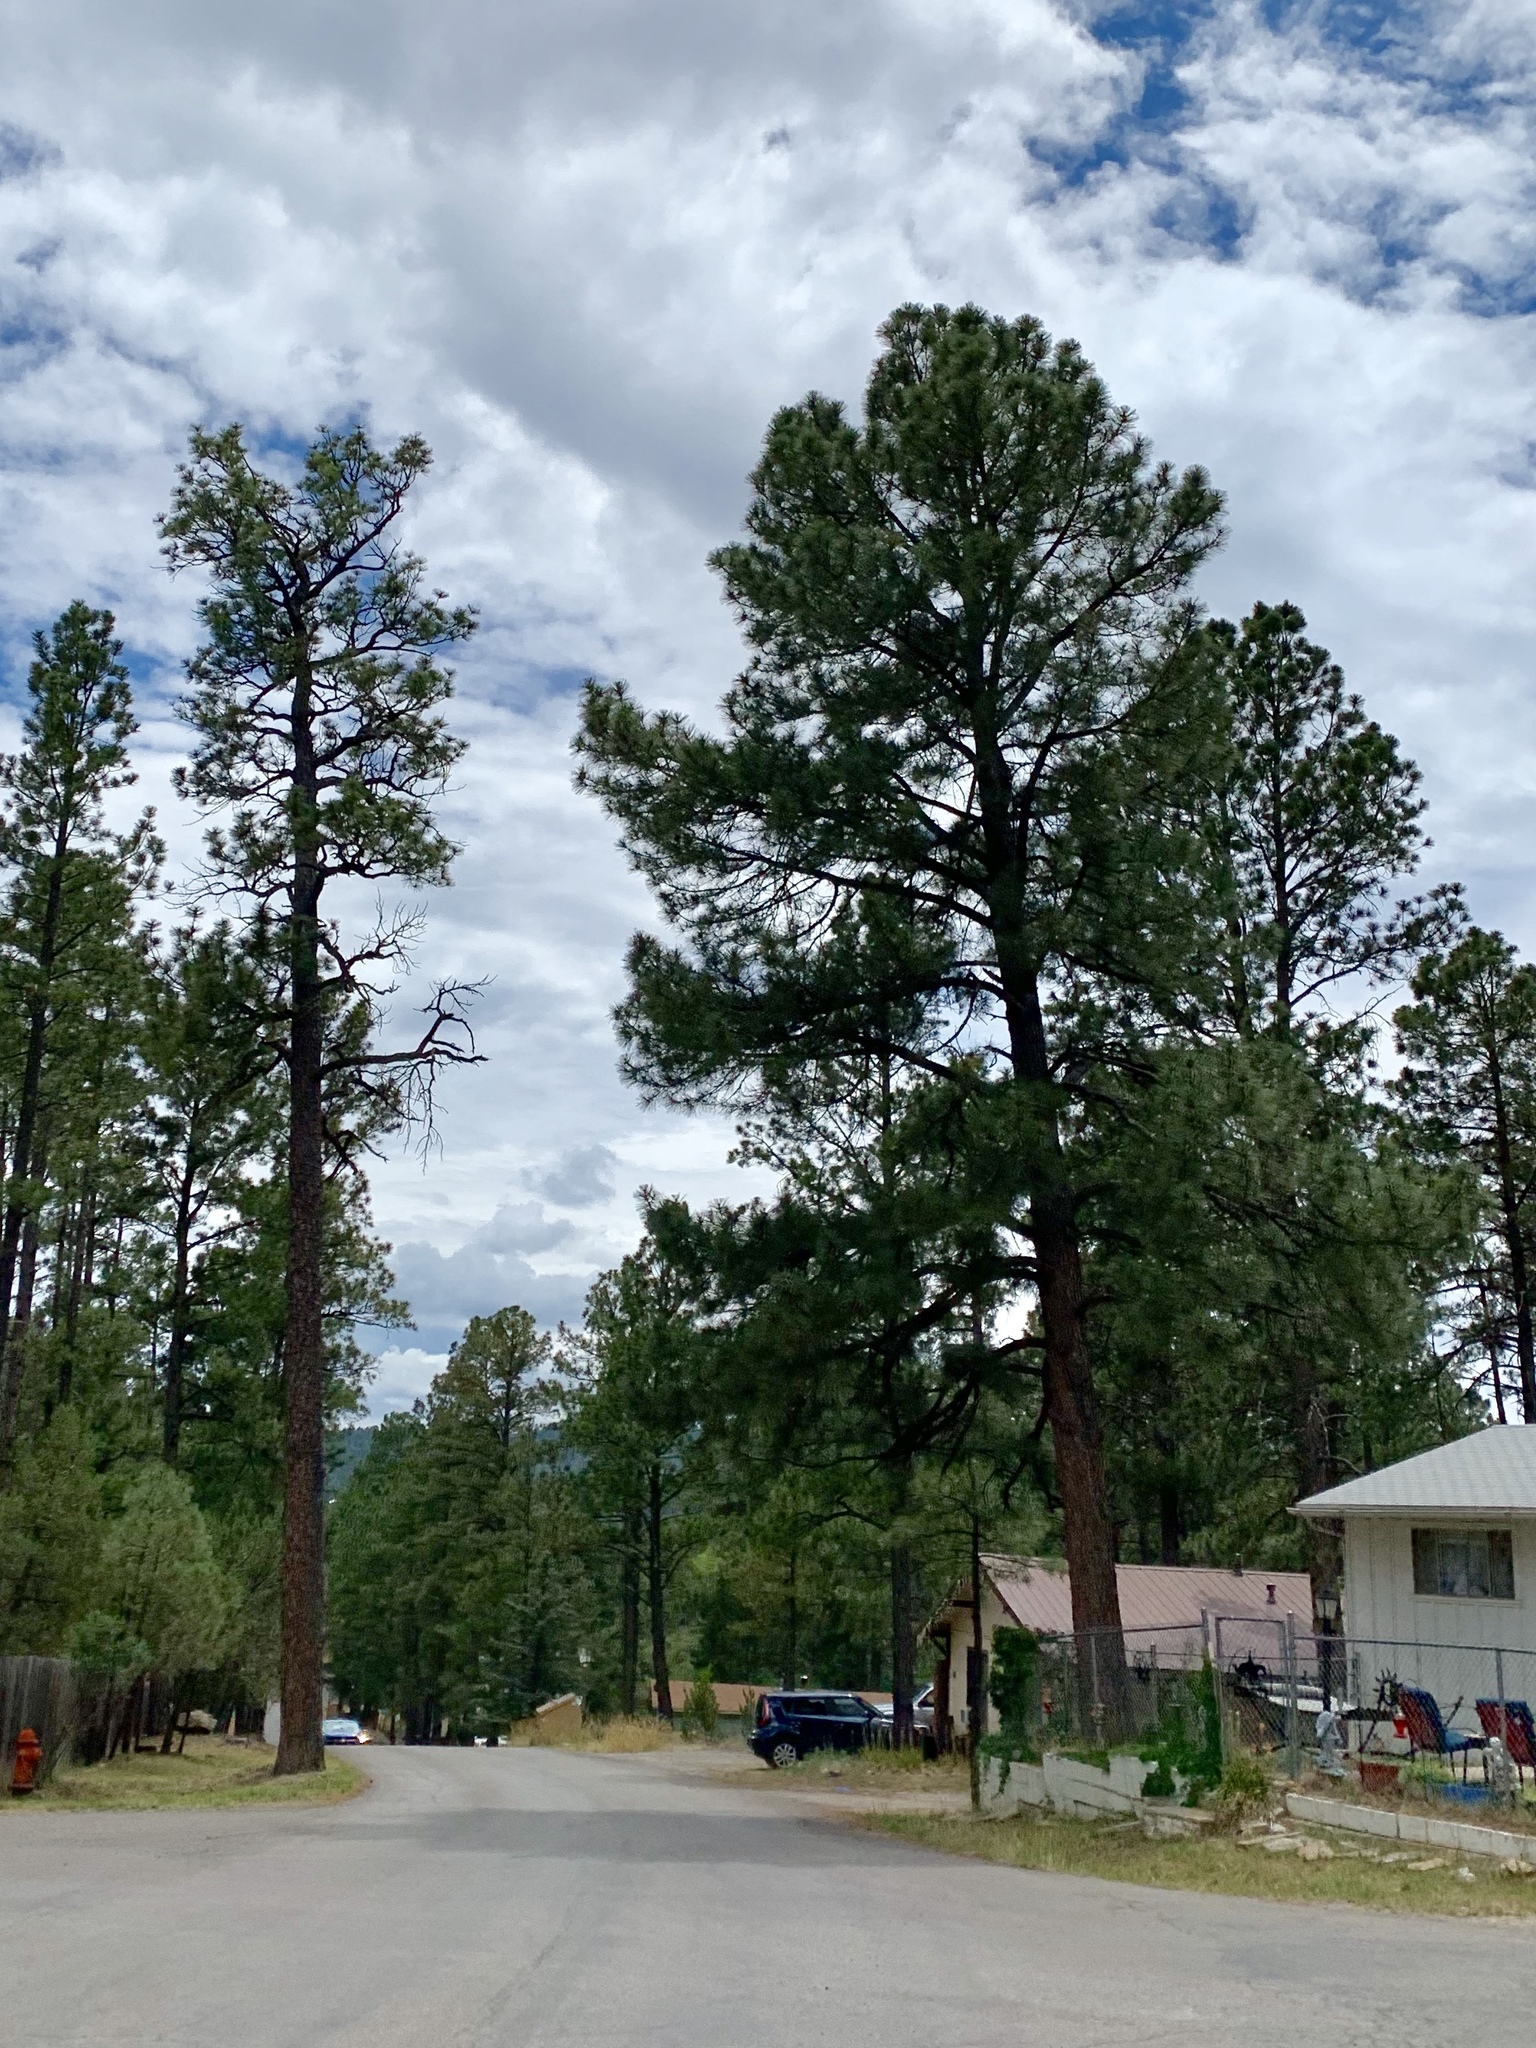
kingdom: Plantae
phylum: Tracheophyta
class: Pinopsida
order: Pinales
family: Pinaceae
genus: Pinus
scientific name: Pinus ponderosa
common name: Western yellow-pine
